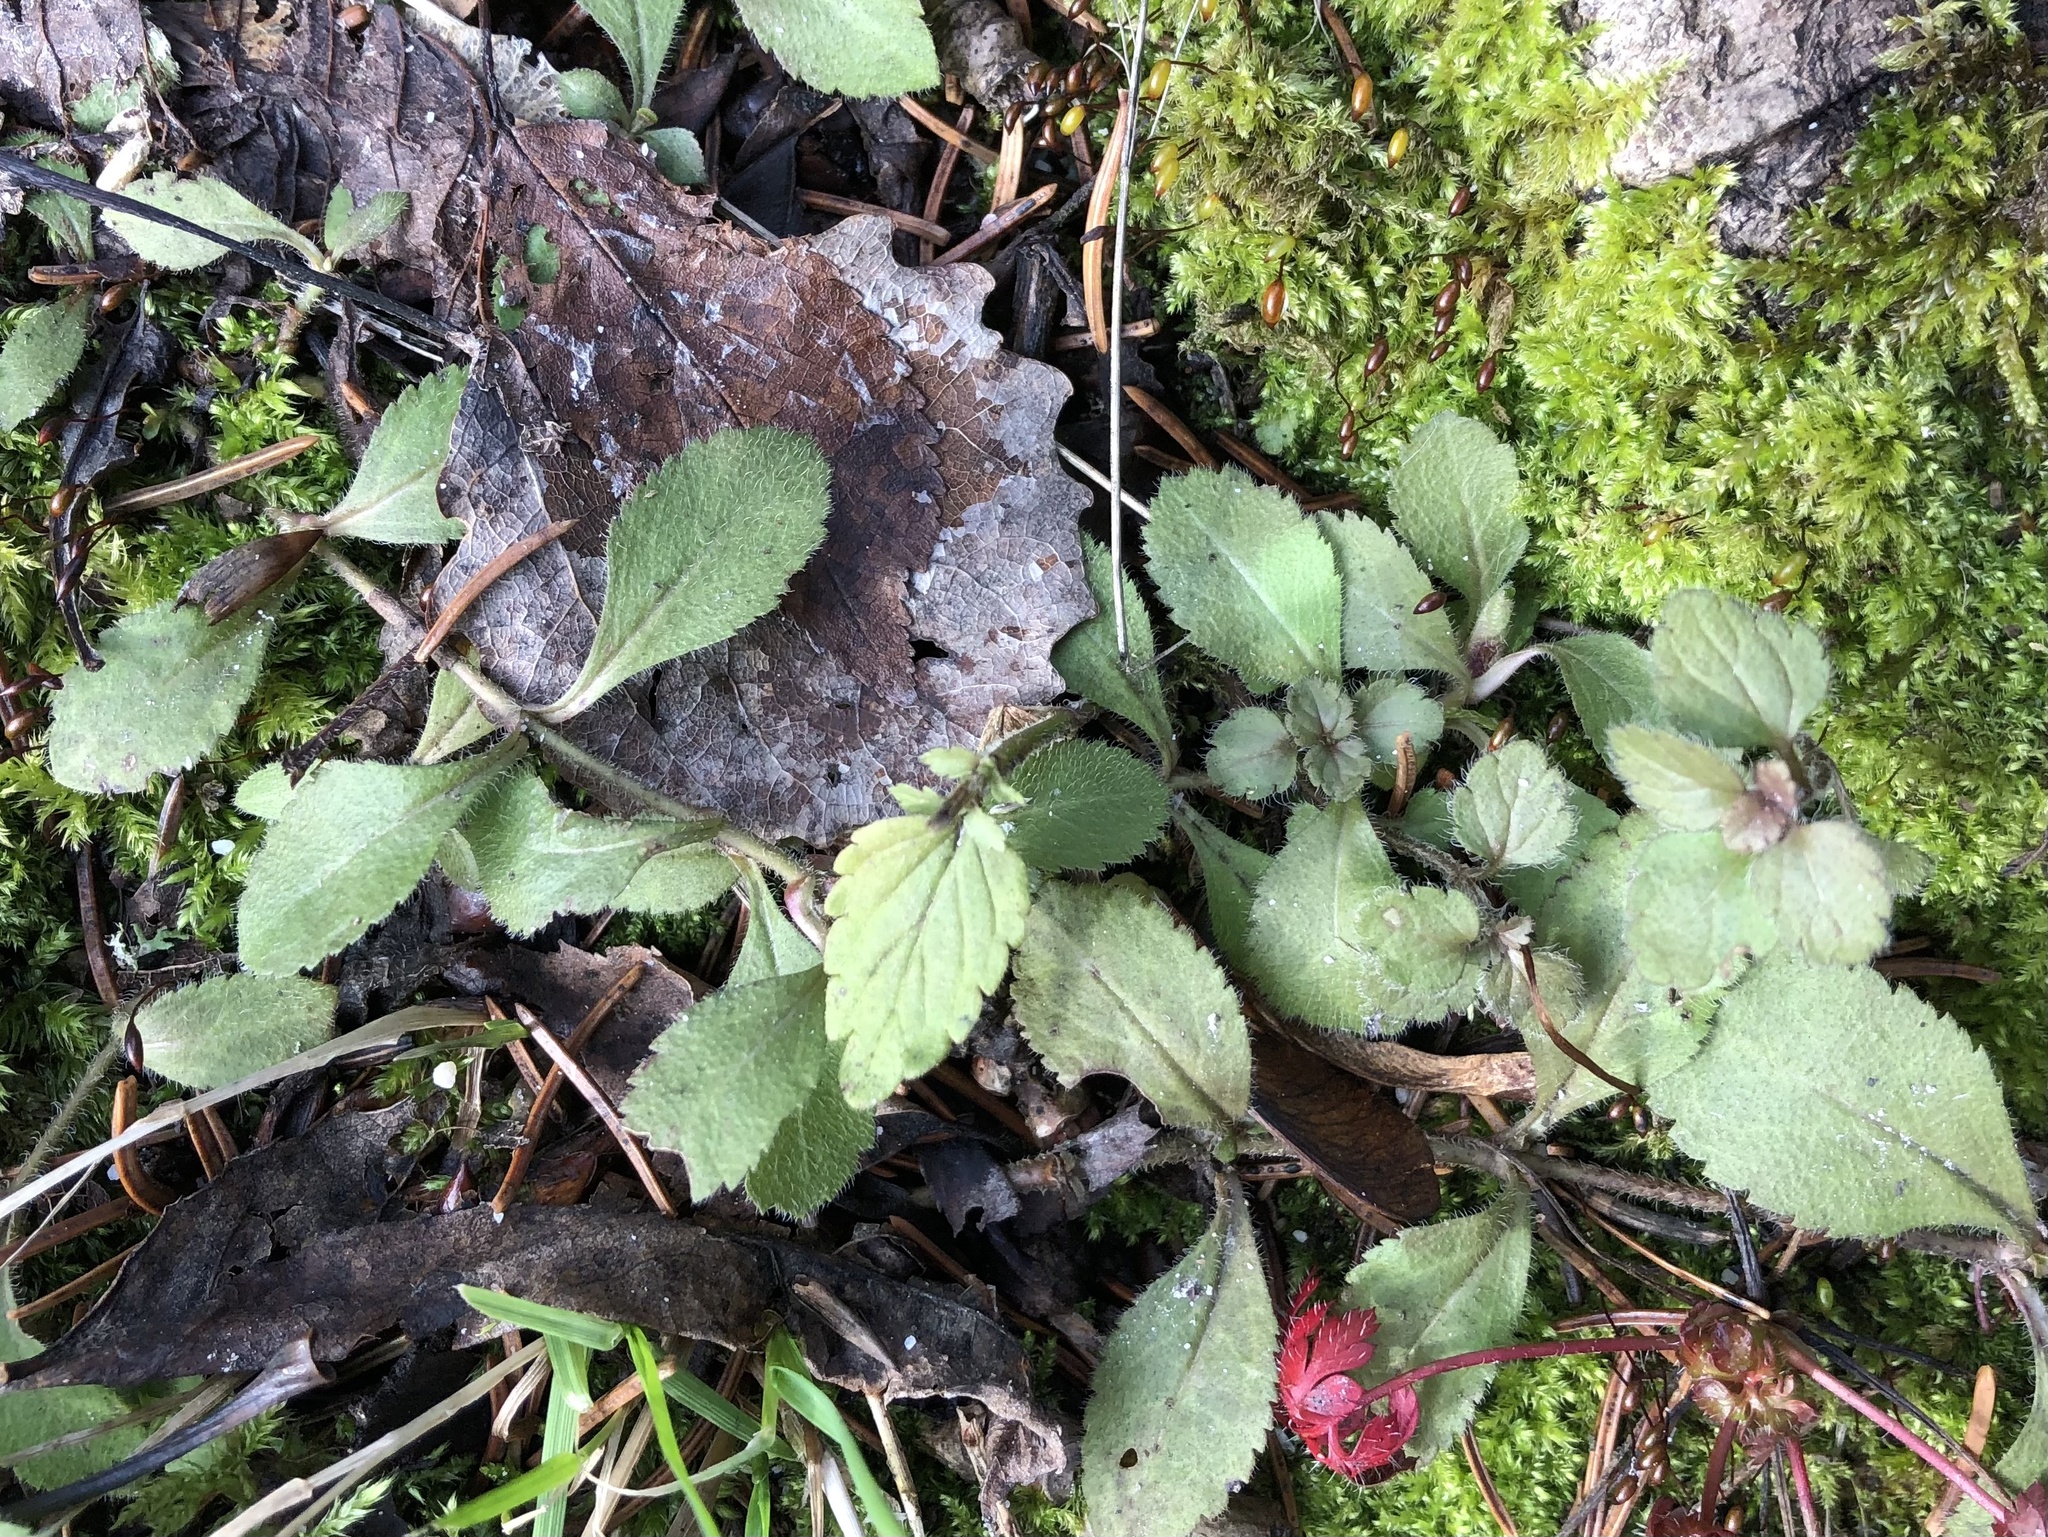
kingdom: Plantae
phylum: Tracheophyta
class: Magnoliopsida
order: Lamiales
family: Plantaginaceae
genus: Veronica
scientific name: Veronica officinalis
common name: Common speedwell
